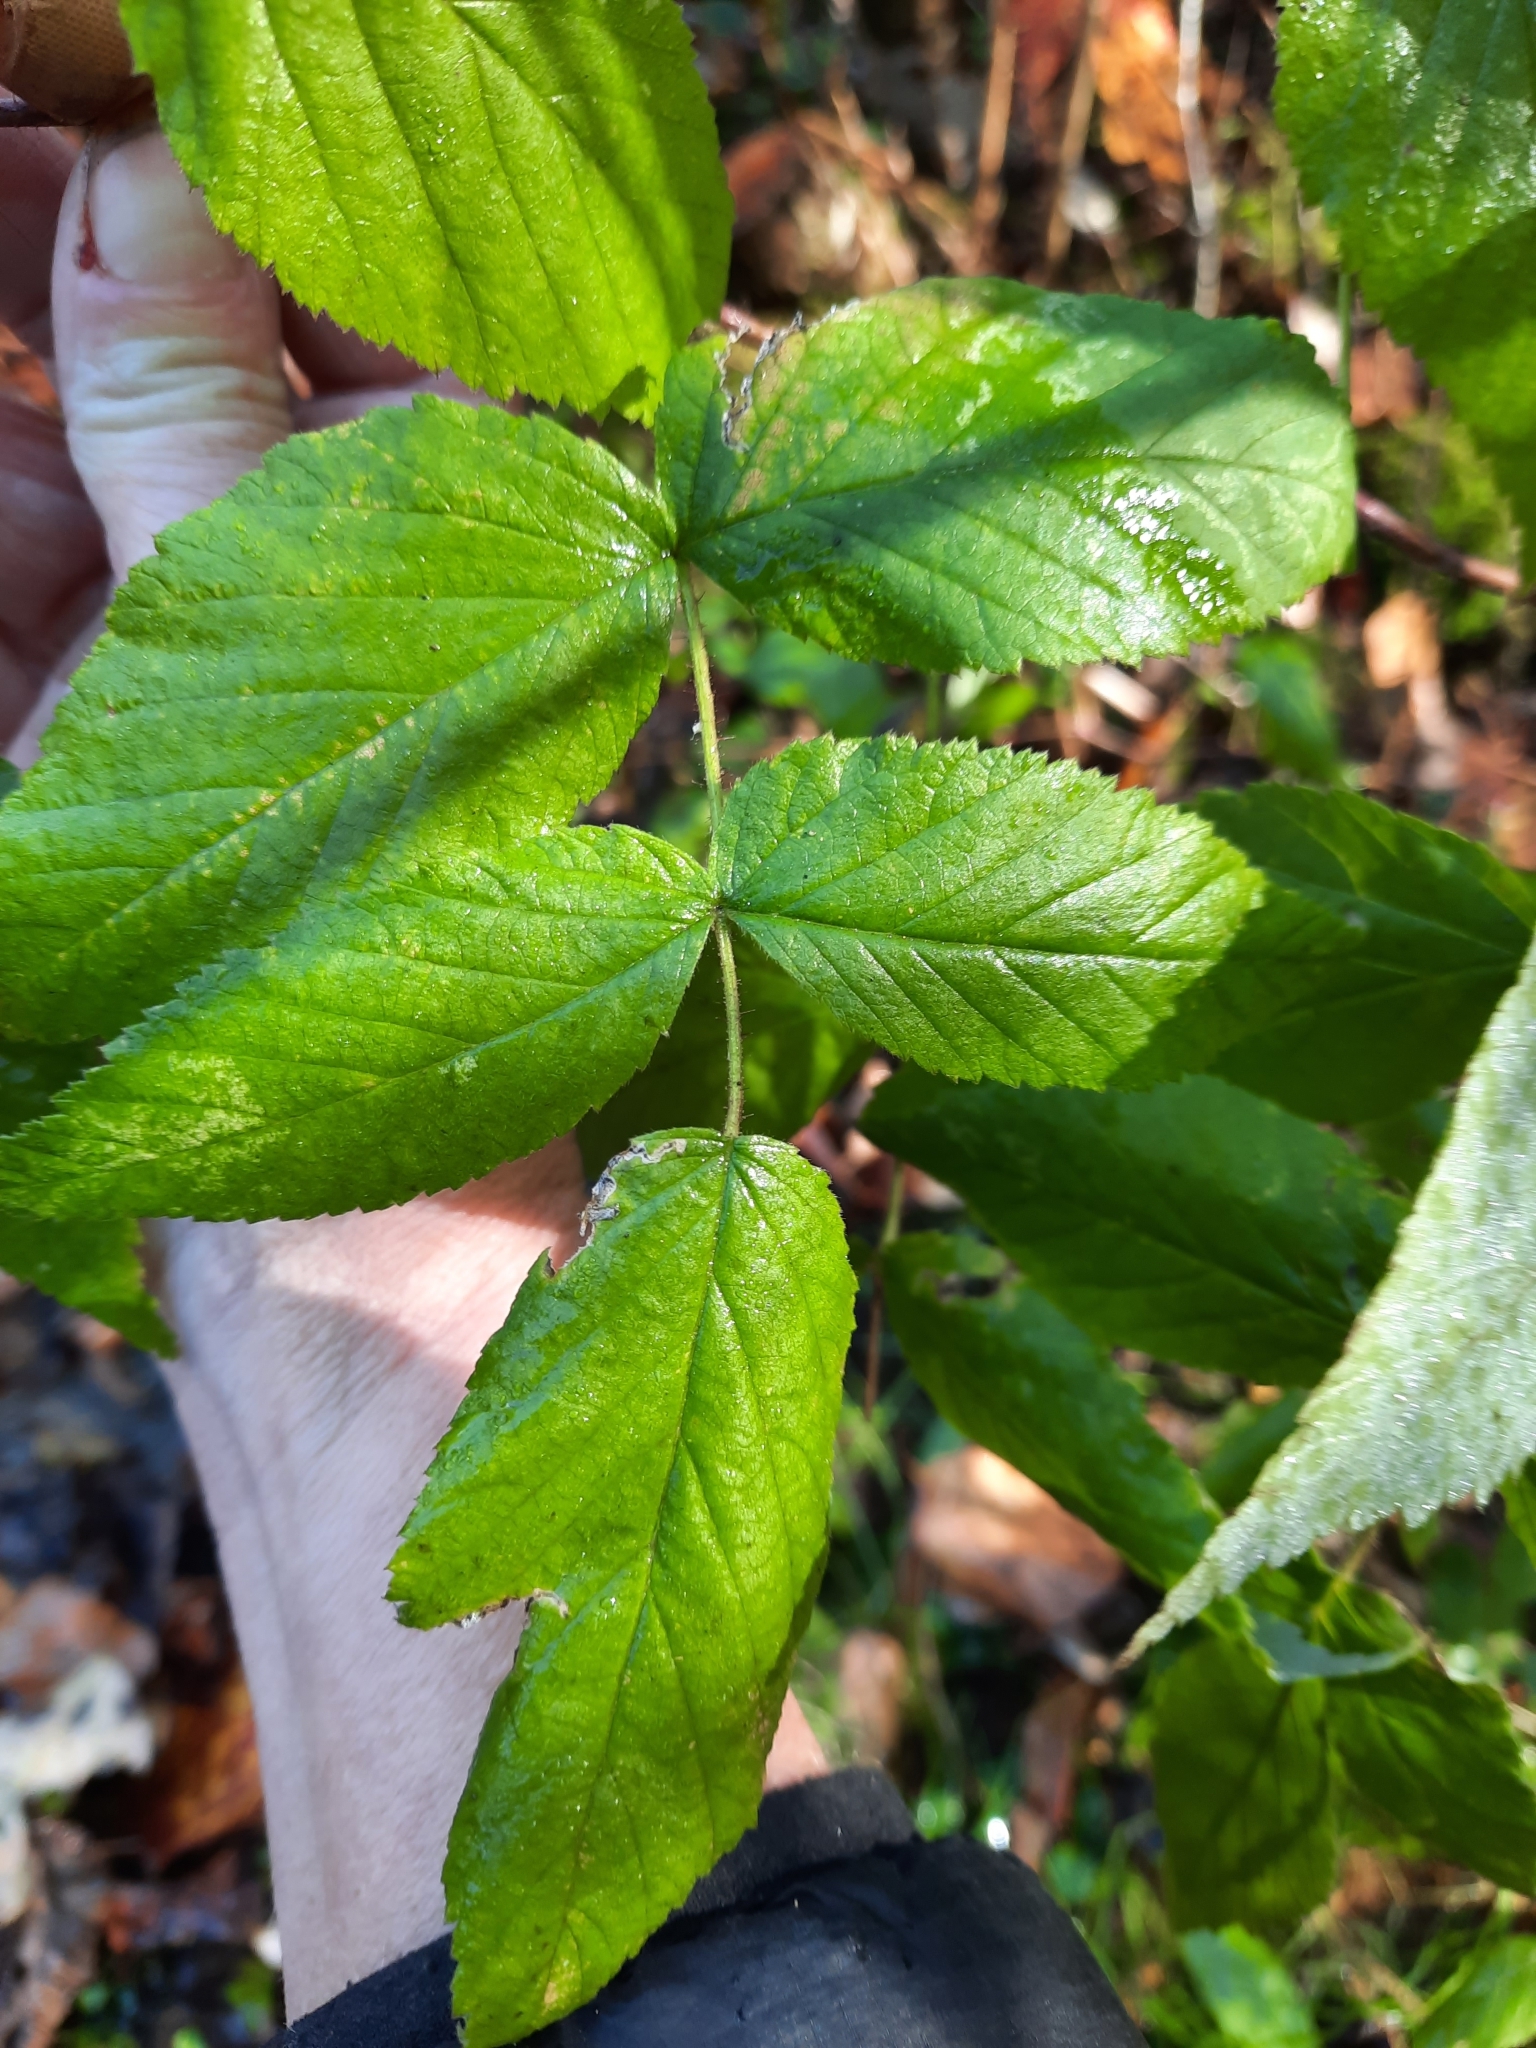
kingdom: Plantae
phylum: Tracheophyta
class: Magnoliopsida
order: Rosales
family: Rosaceae
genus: Rubus
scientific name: Rubus idaeus
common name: Raspberry
